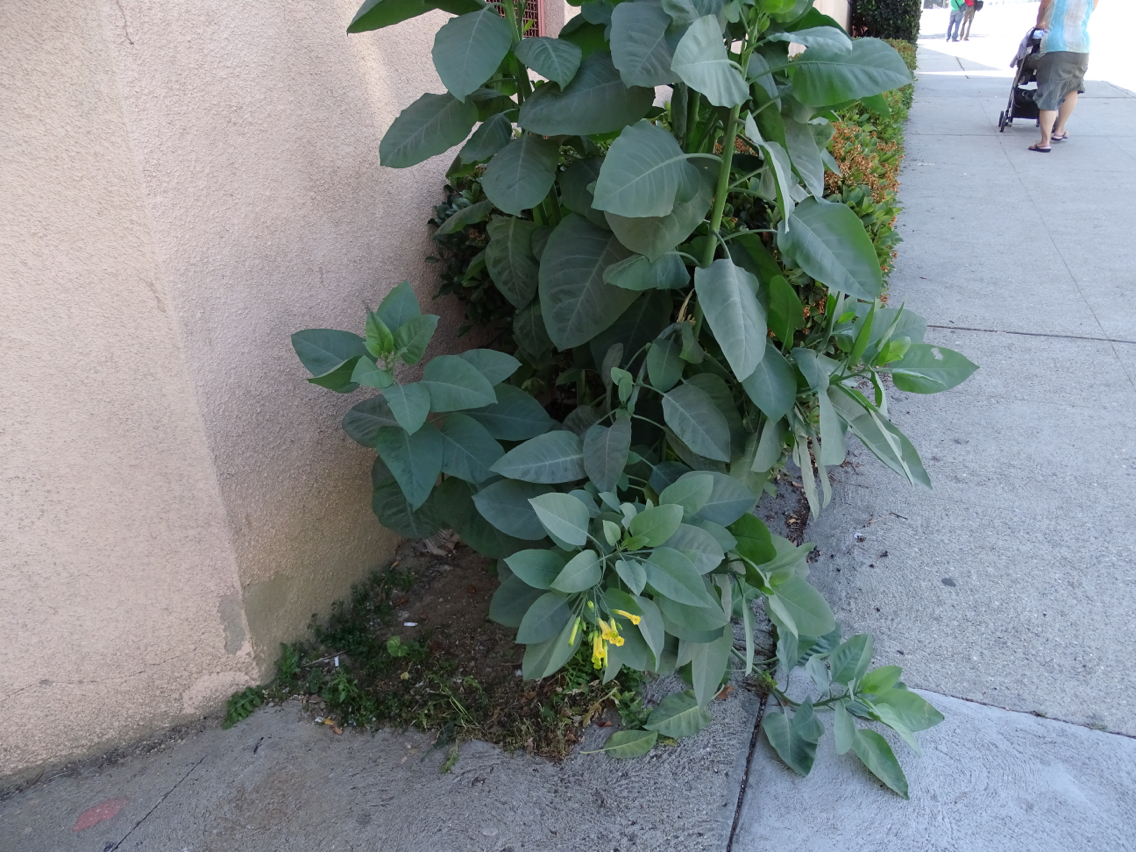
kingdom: Plantae
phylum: Tracheophyta
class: Magnoliopsida
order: Solanales
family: Solanaceae
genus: Nicotiana
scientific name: Nicotiana glauca
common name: Tree tobacco
